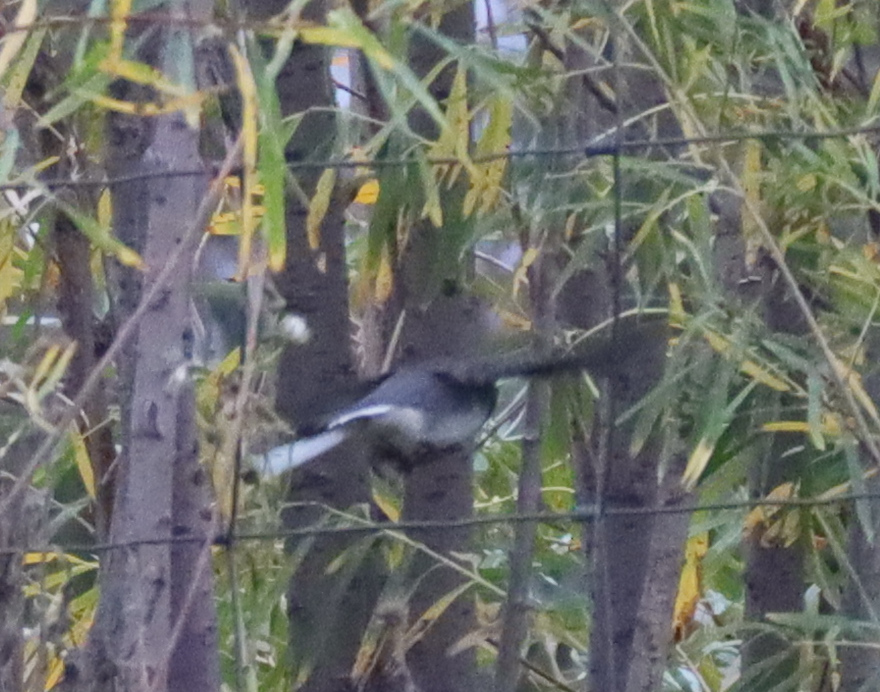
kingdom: Animalia
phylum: Chordata
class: Aves
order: Passeriformes
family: Passerellidae
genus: Junco
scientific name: Junco hyemalis
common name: Dark-eyed junco
